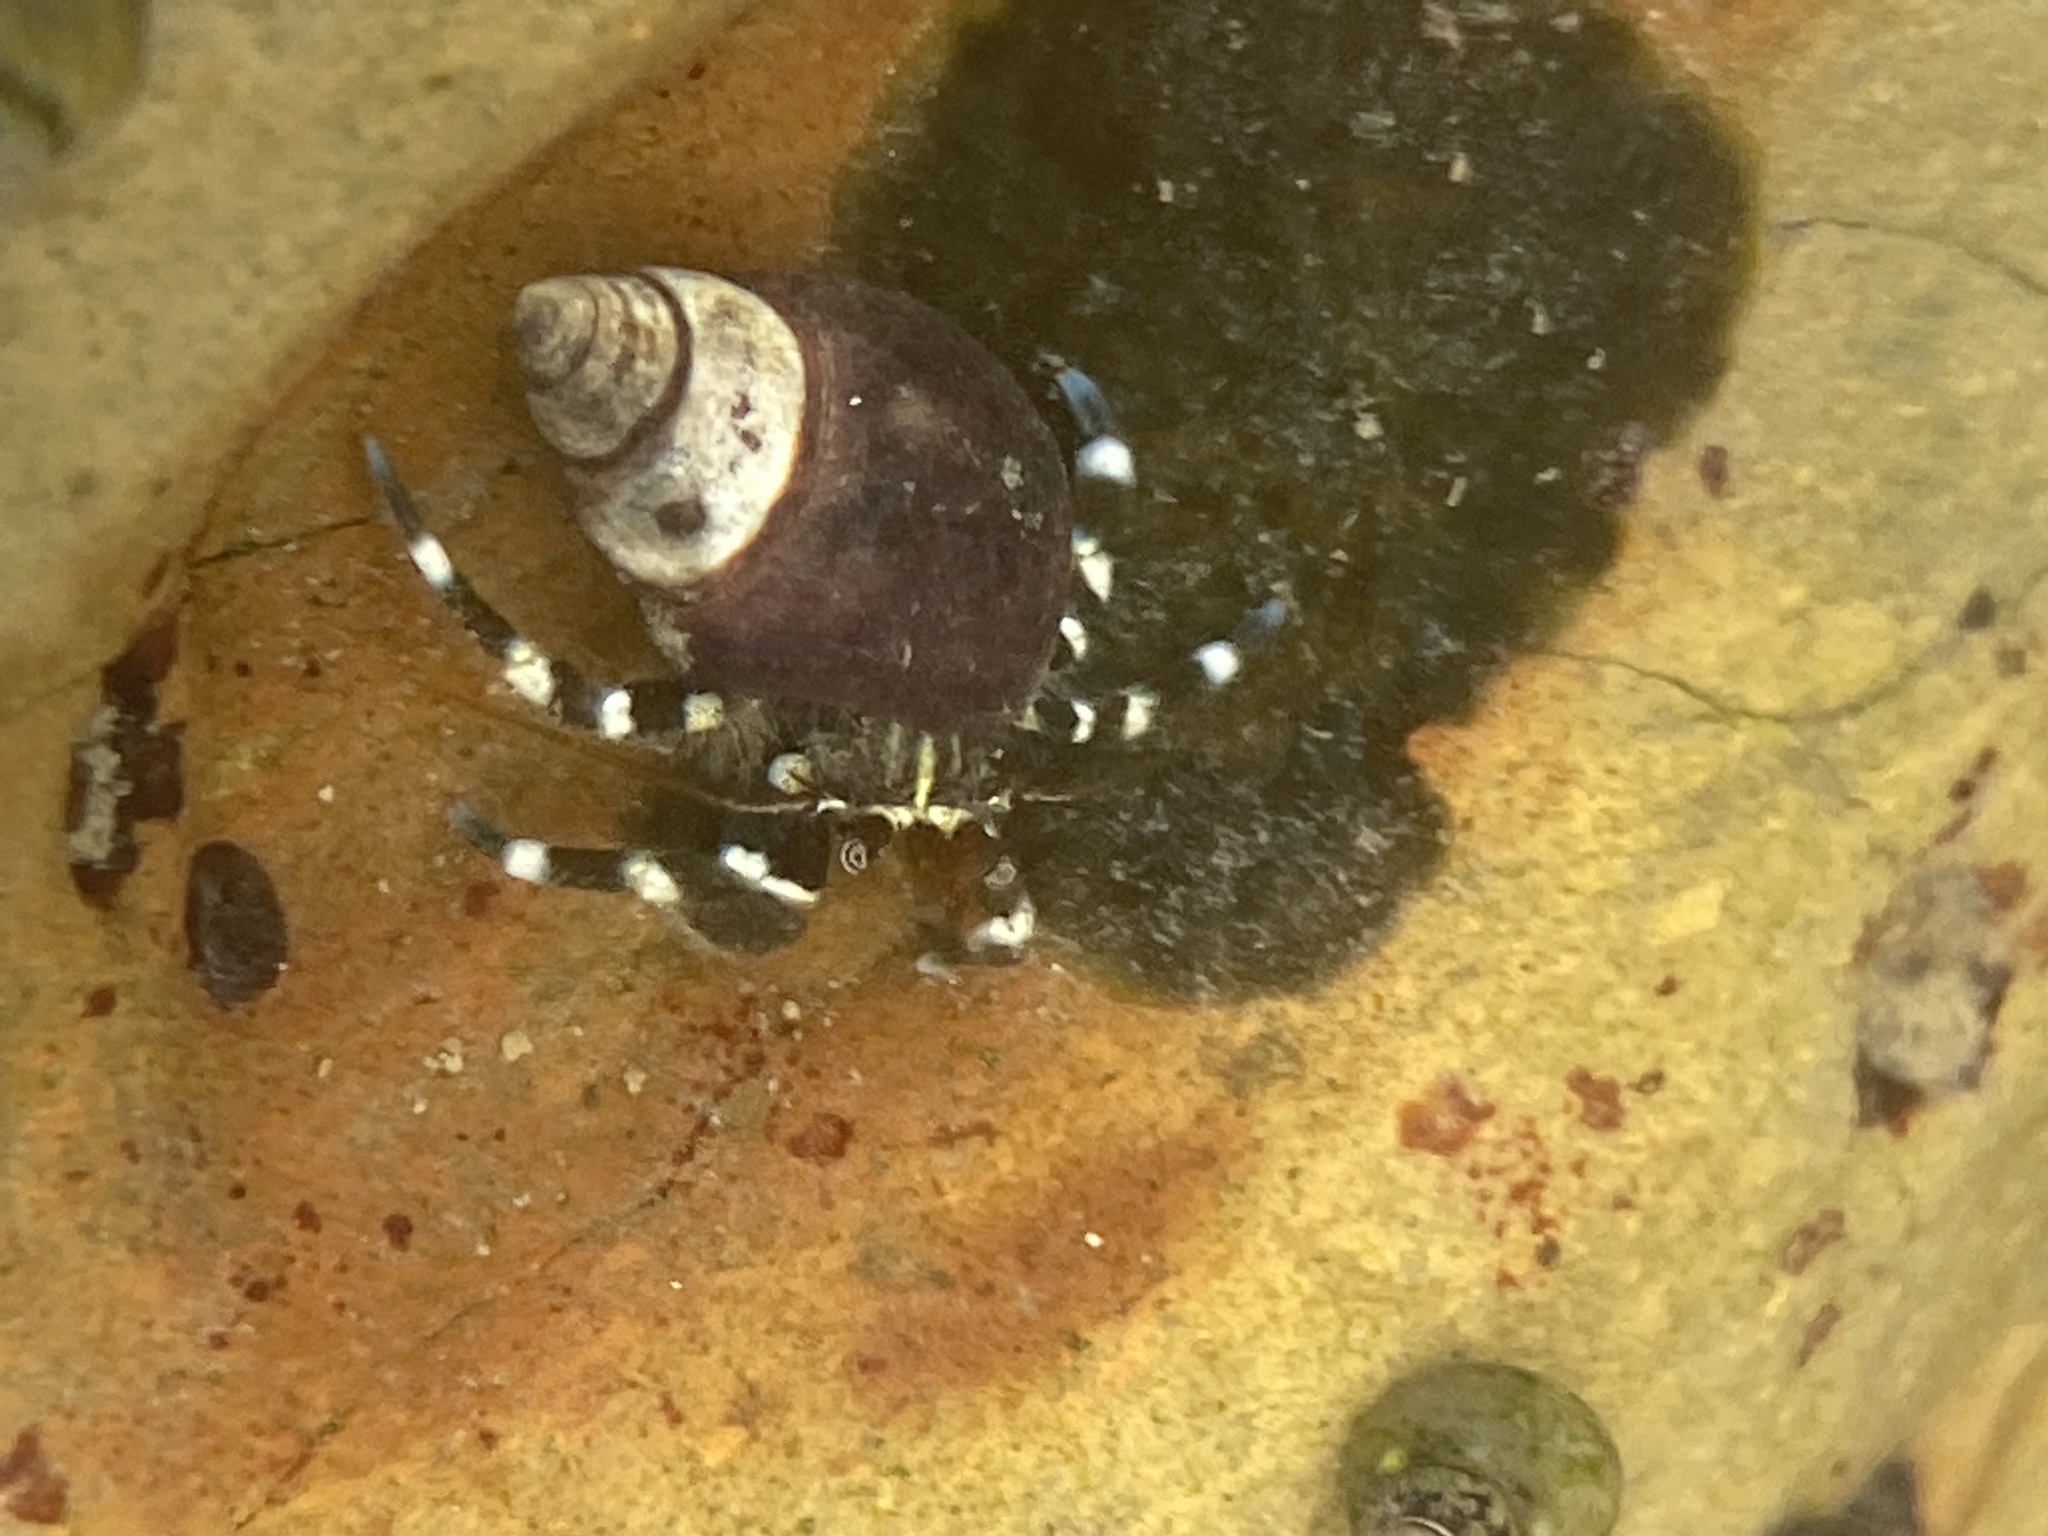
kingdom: Animalia
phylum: Arthropoda
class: Malacostraca
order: Decapoda
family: Paguridae
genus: Pagurus
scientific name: Pagurus samuelis
